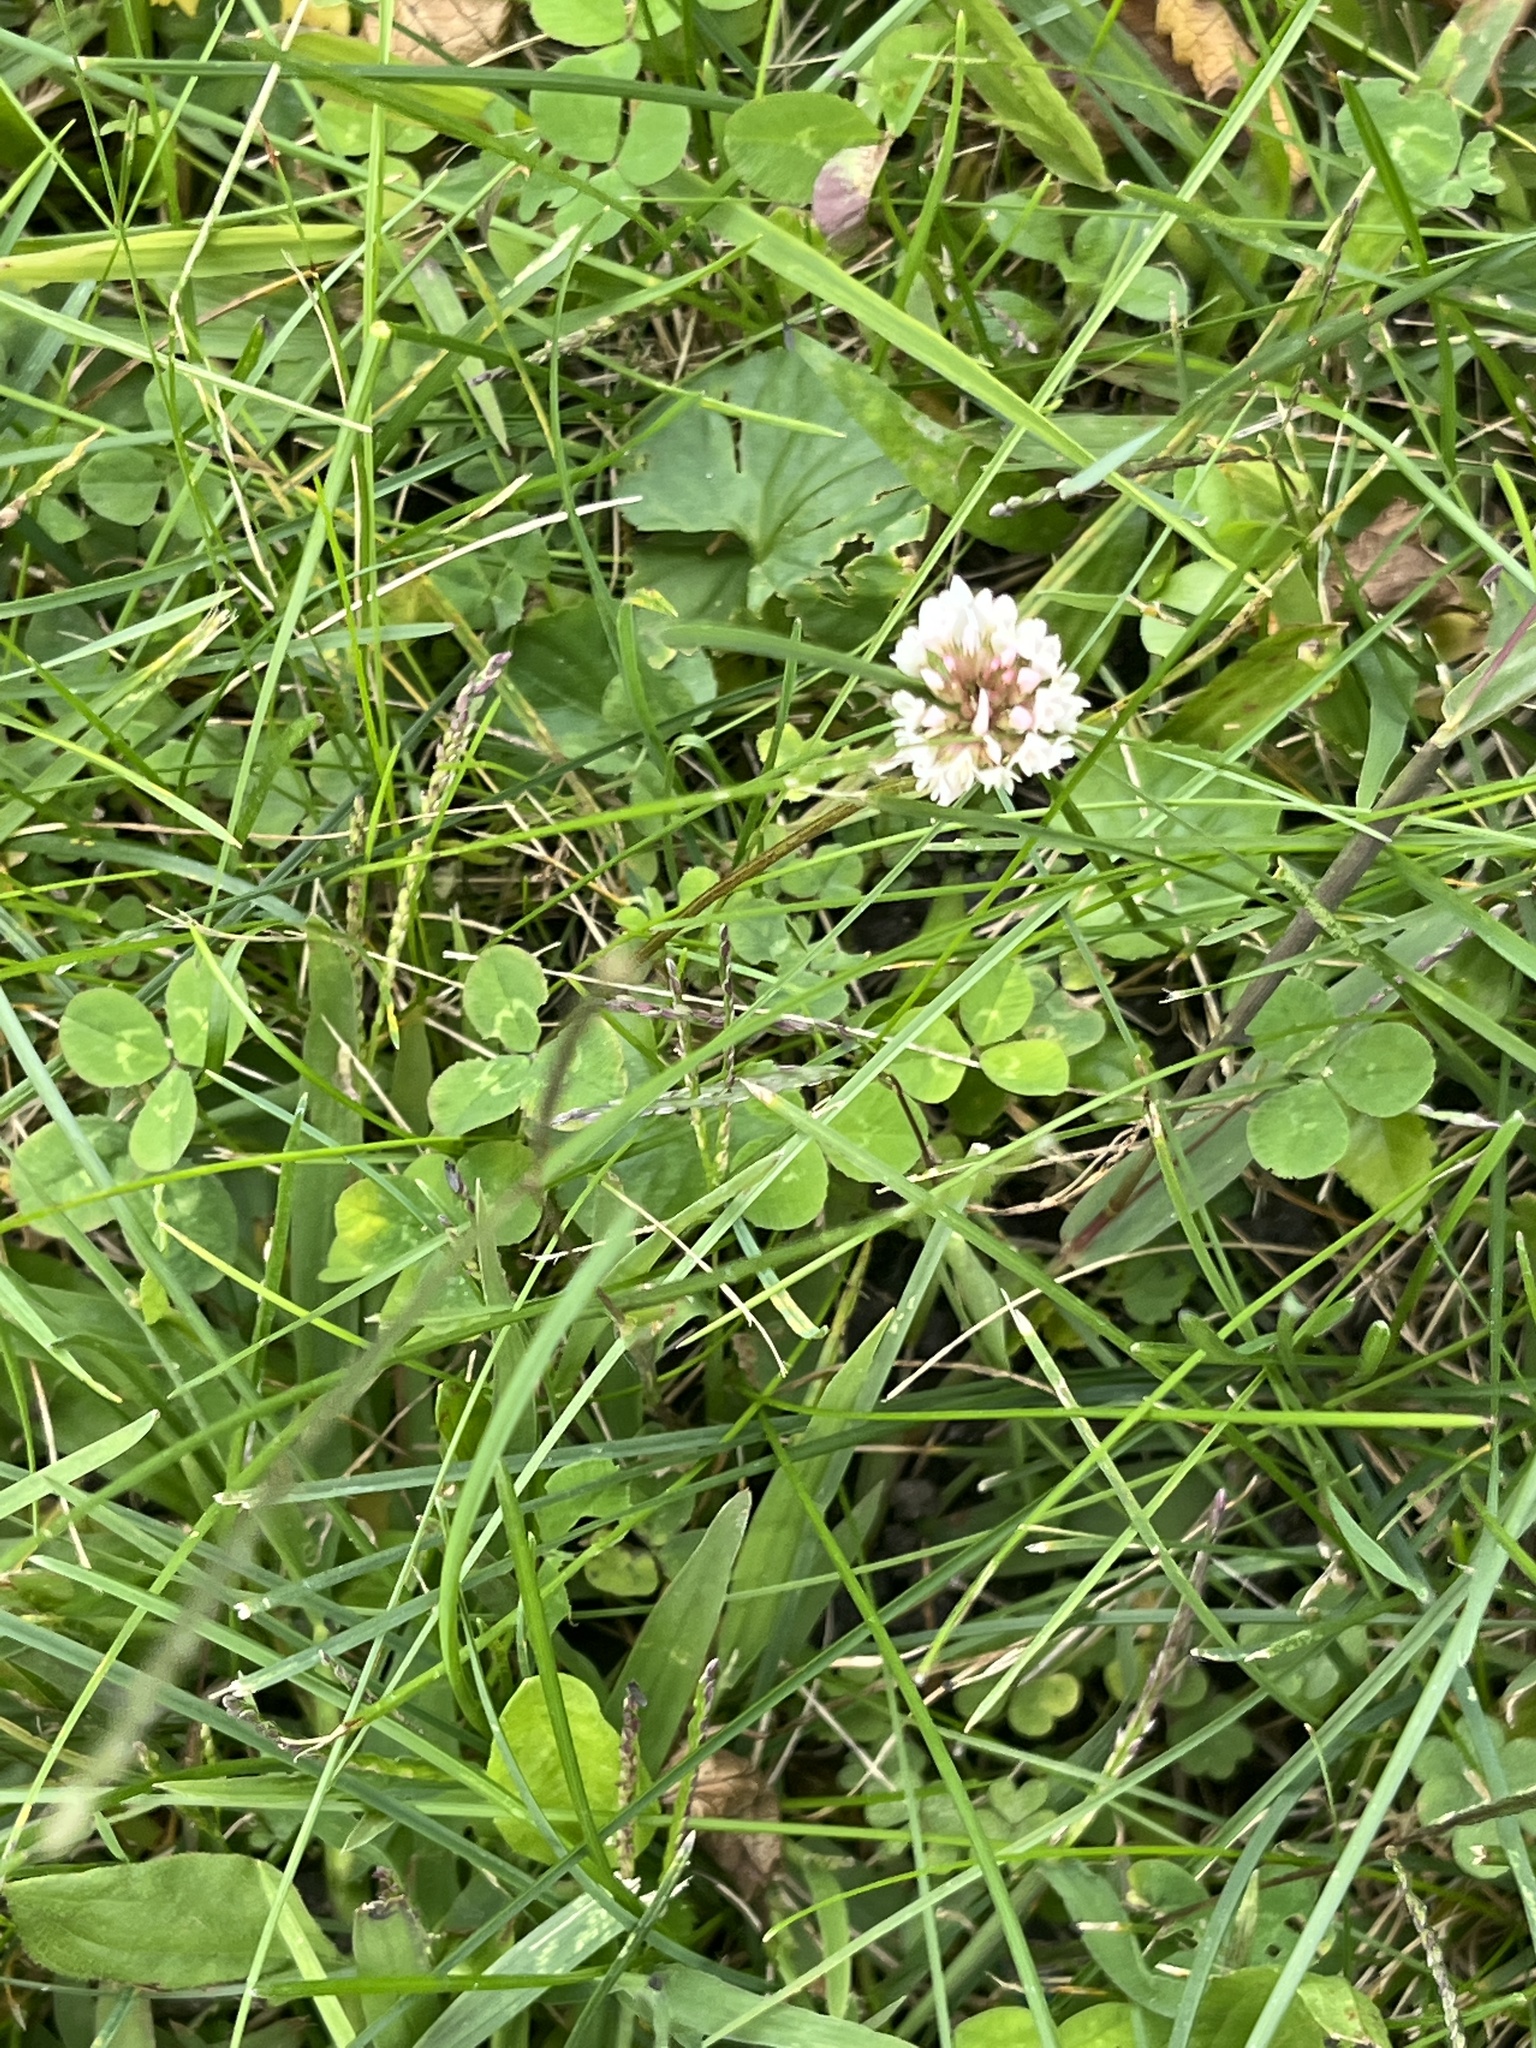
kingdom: Plantae
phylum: Tracheophyta
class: Magnoliopsida
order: Fabales
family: Fabaceae
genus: Trifolium
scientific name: Trifolium repens
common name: White clover
